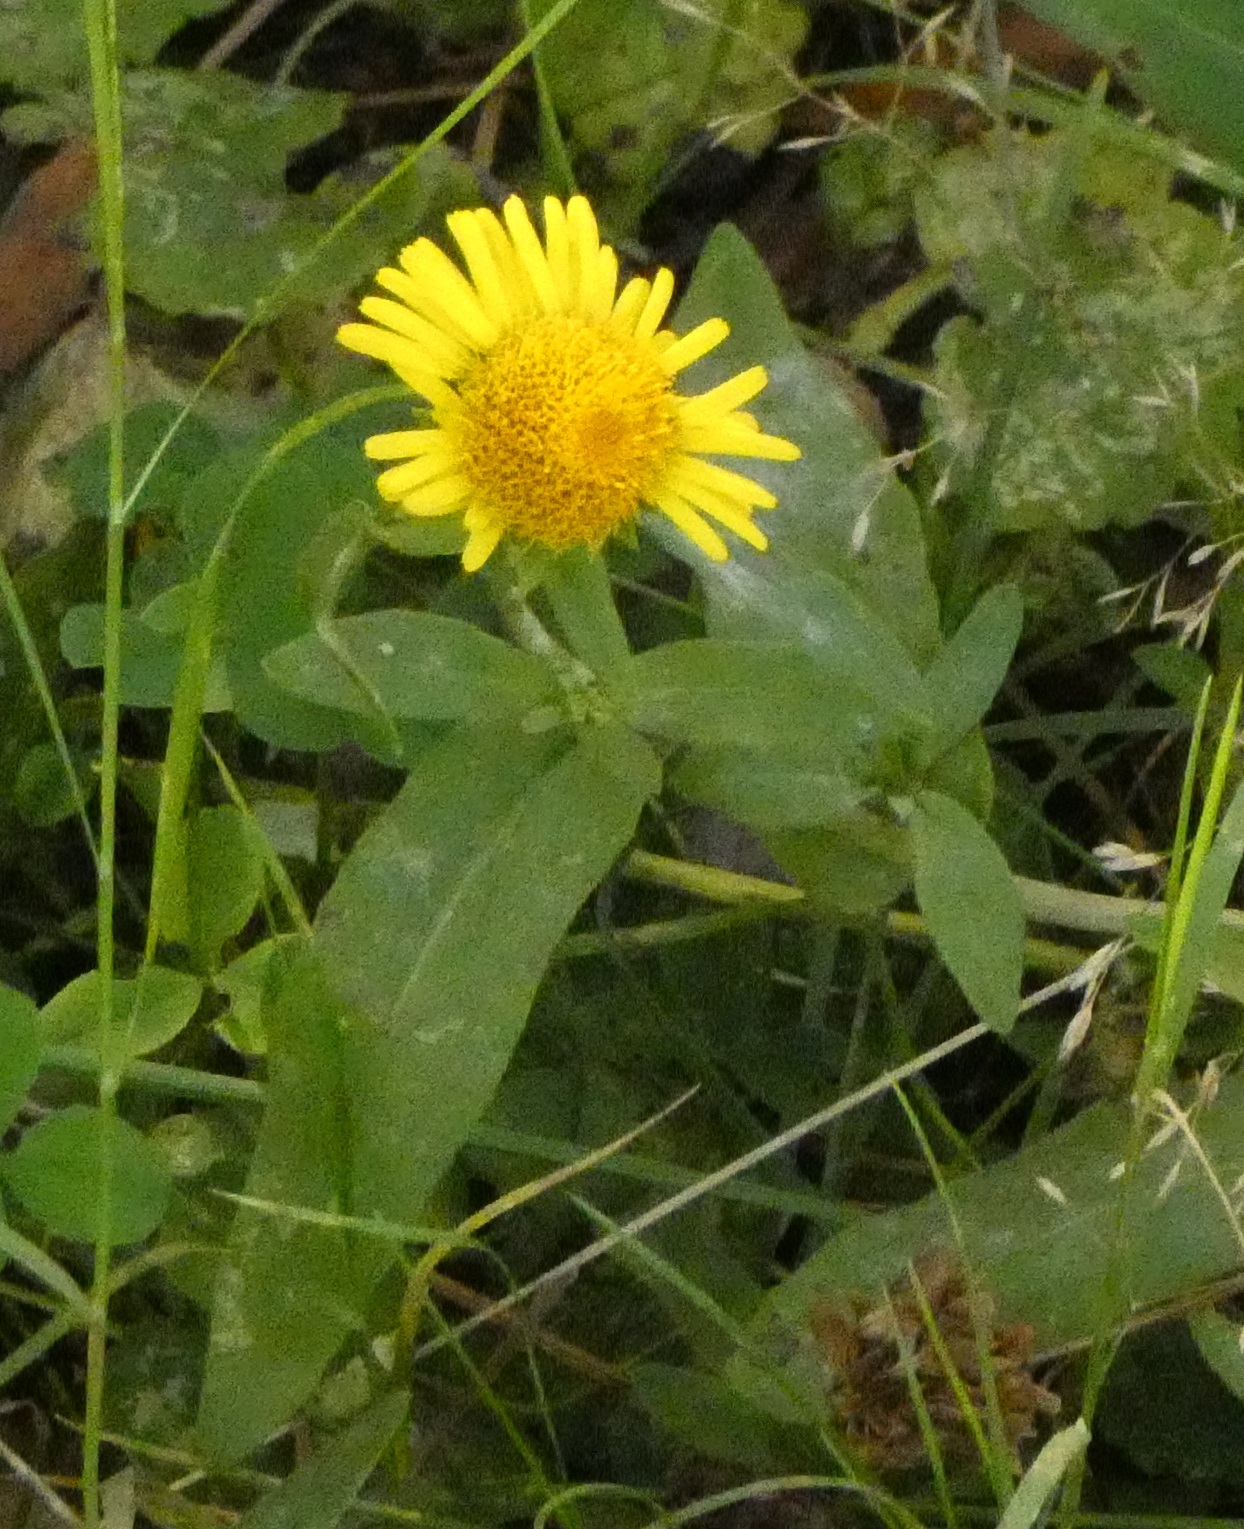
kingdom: Plantae
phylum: Tracheophyta
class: Magnoliopsida
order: Asterales
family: Asteraceae
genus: Pentanema
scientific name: Pentanema britannicum
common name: British elecampane
